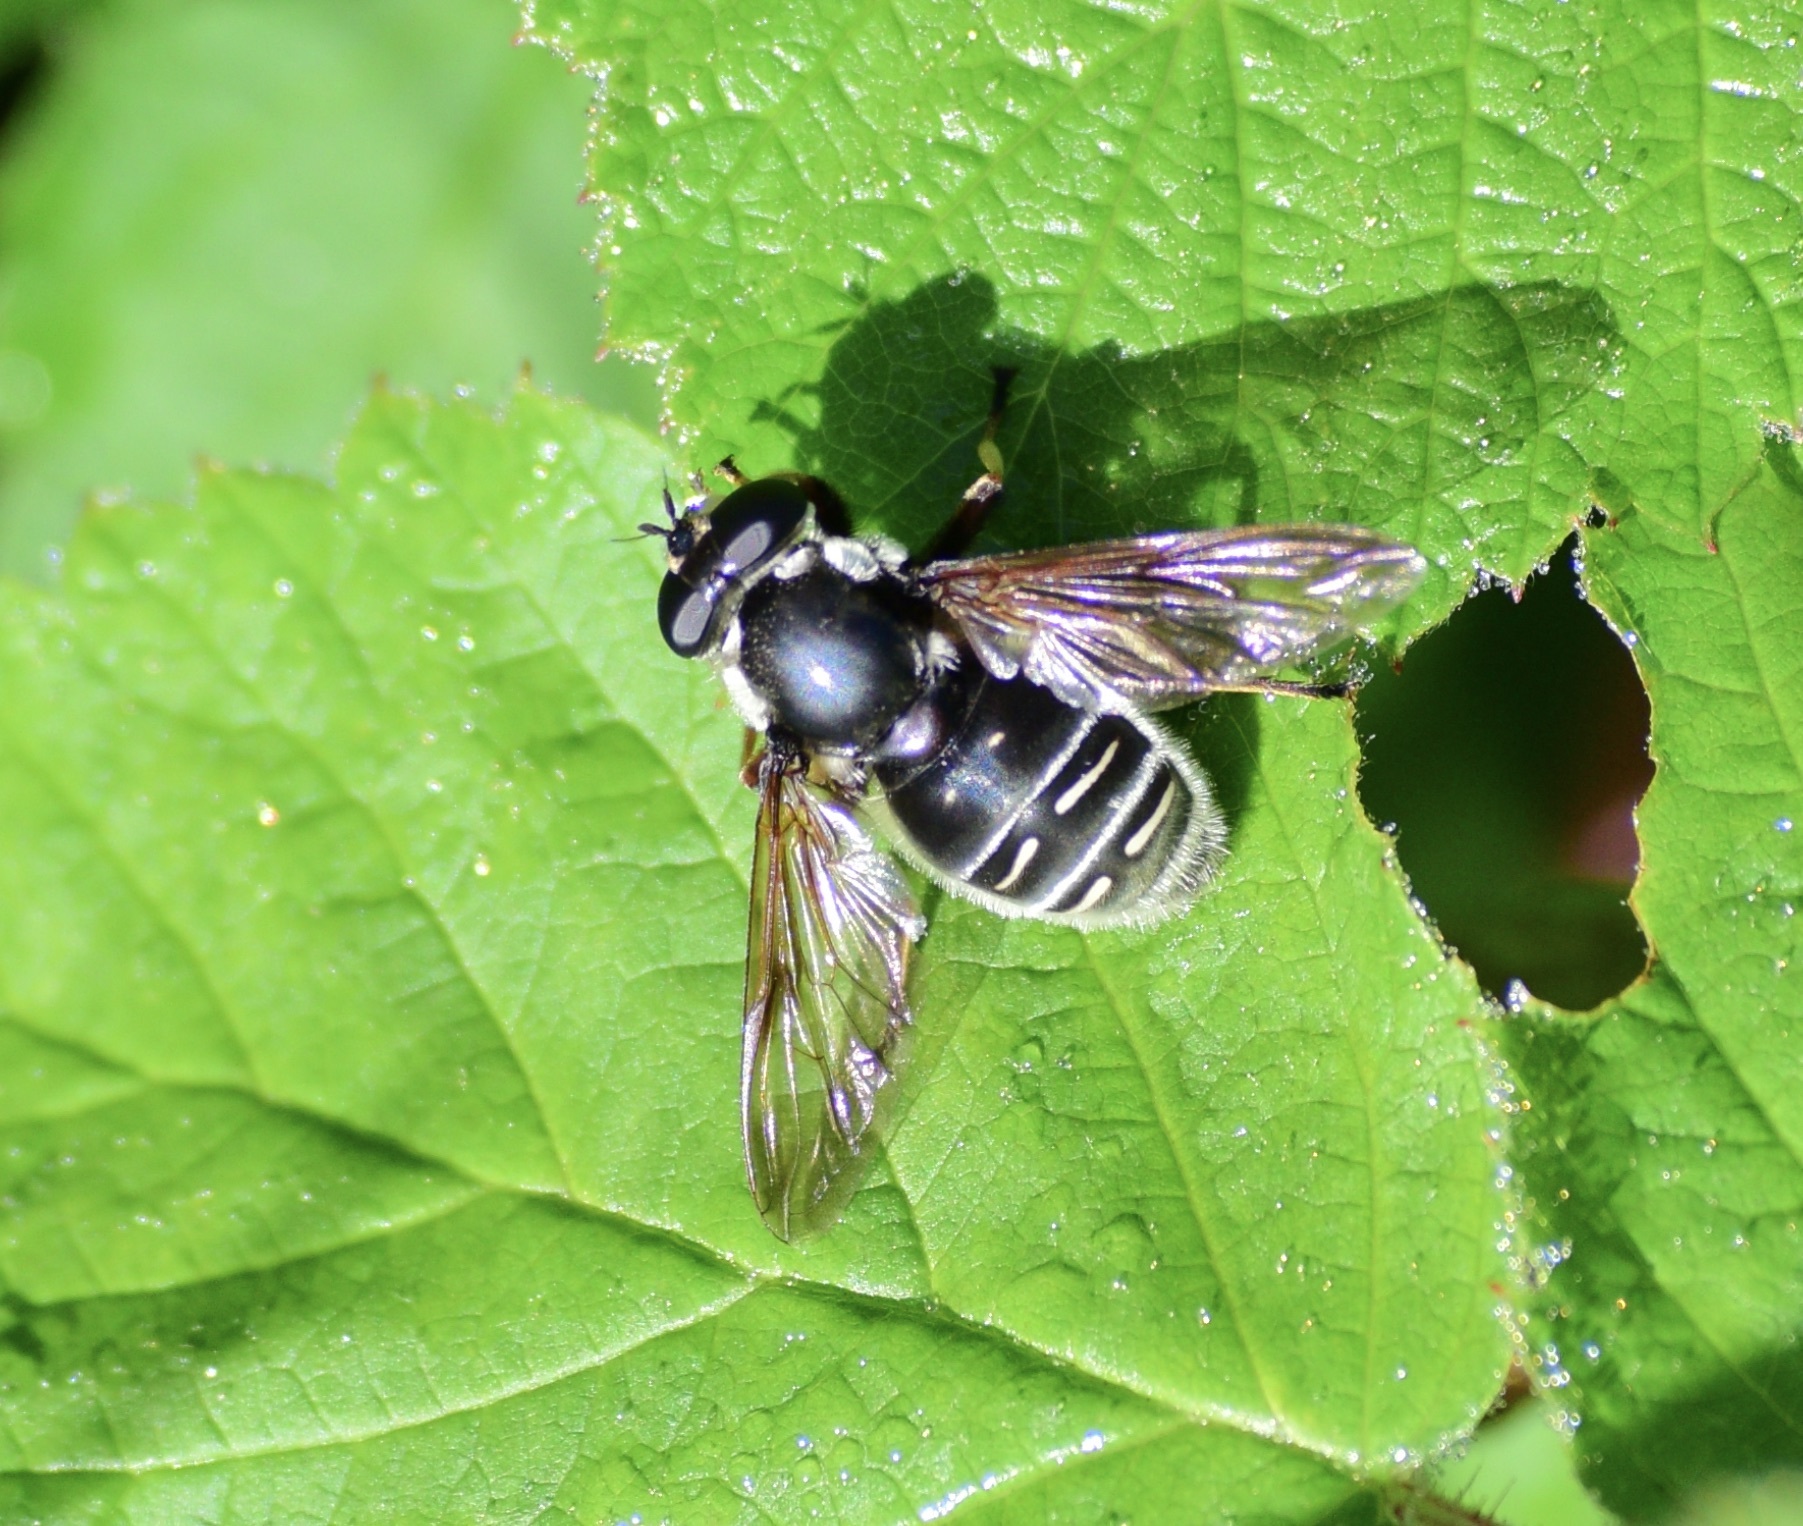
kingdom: Animalia
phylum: Arthropoda
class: Insecta
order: Diptera
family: Syrphidae
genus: Sericomyia
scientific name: Sericomyia militaris
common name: Narrow-banded pond fly
